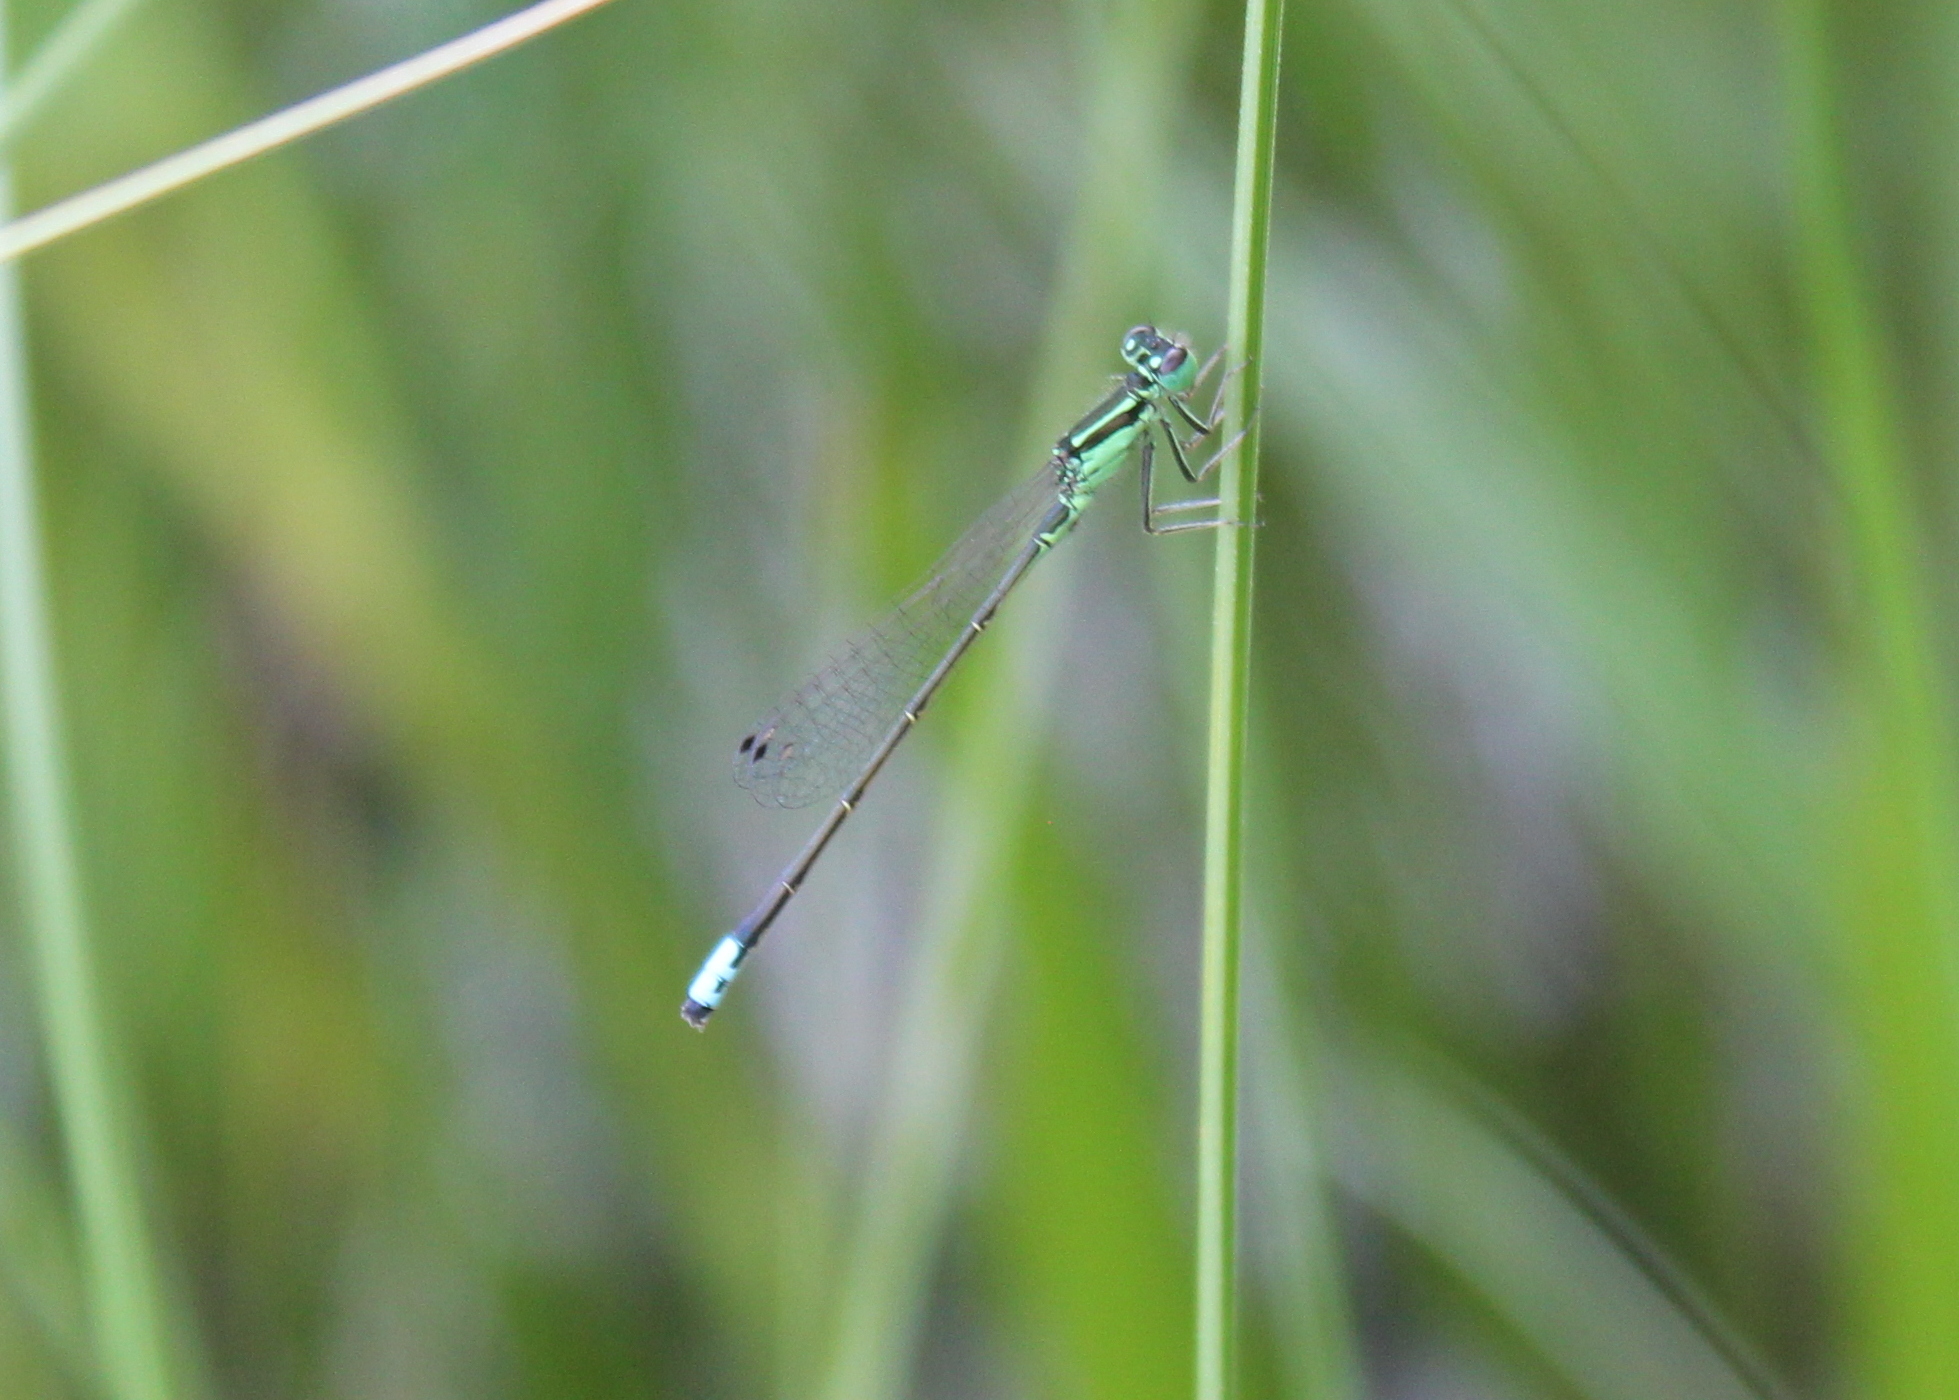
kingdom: Animalia
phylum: Arthropoda
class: Insecta
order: Odonata
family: Coenagrionidae
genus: Ischnura
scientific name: Ischnura verticalis
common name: Eastern forktail
